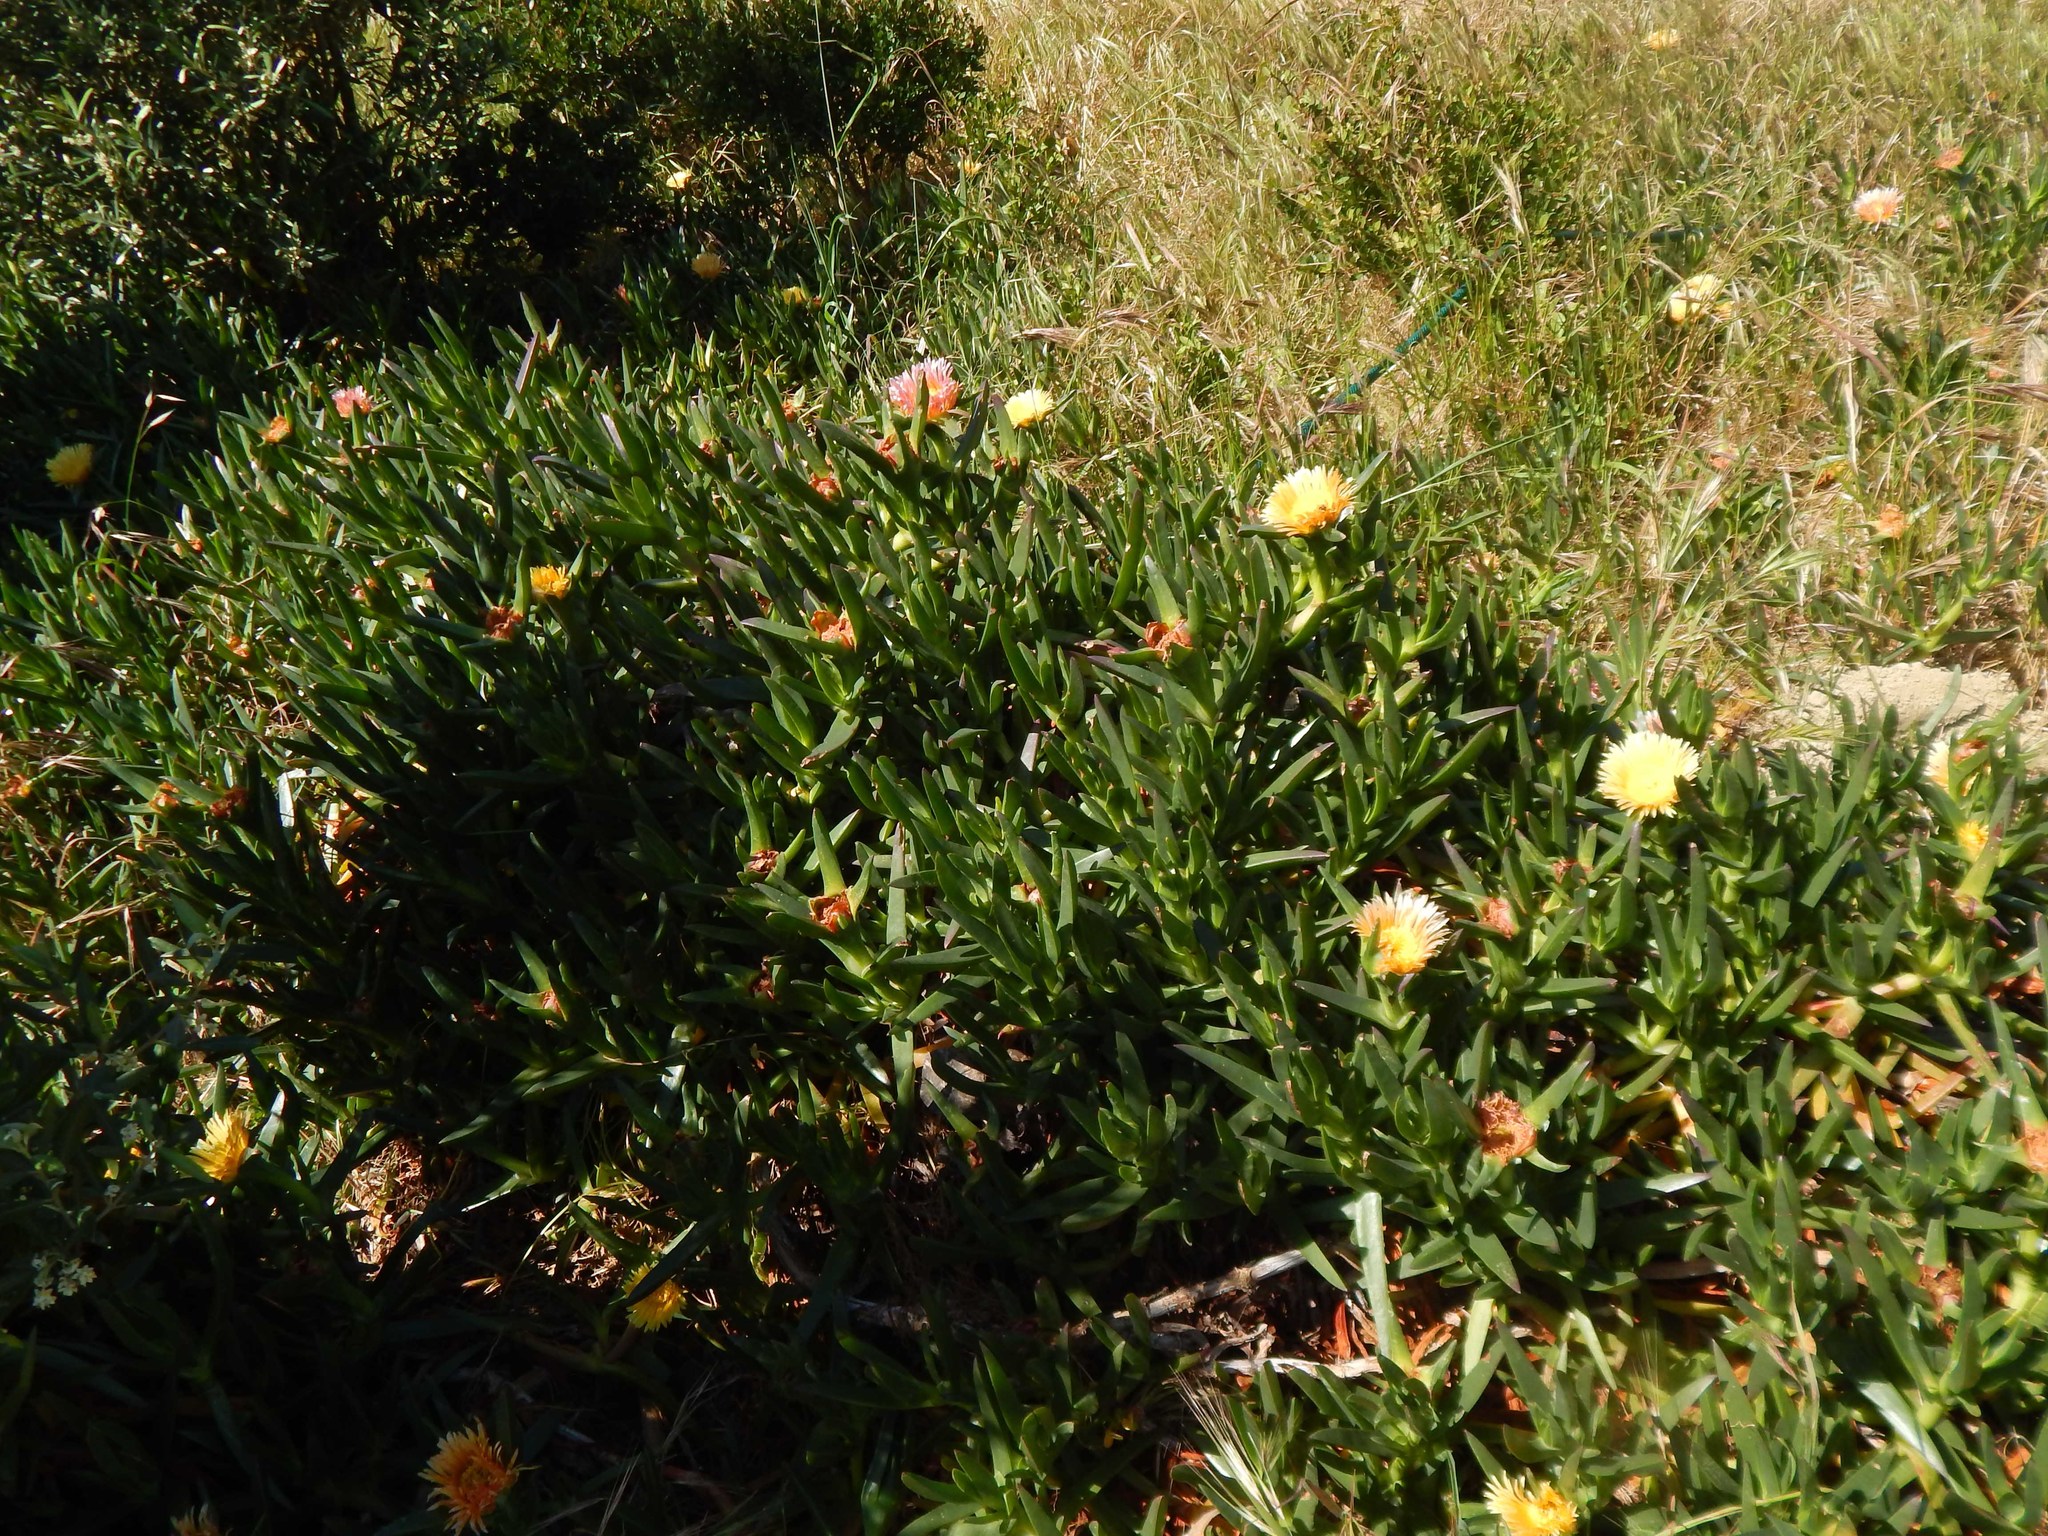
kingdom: Plantae
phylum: Tracheophyta
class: Magnoliopsida
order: Caryophyllales
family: Aizoaceae
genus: Carpobrotus
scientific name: Carpobrotus edulis
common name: Hottentot-fig
